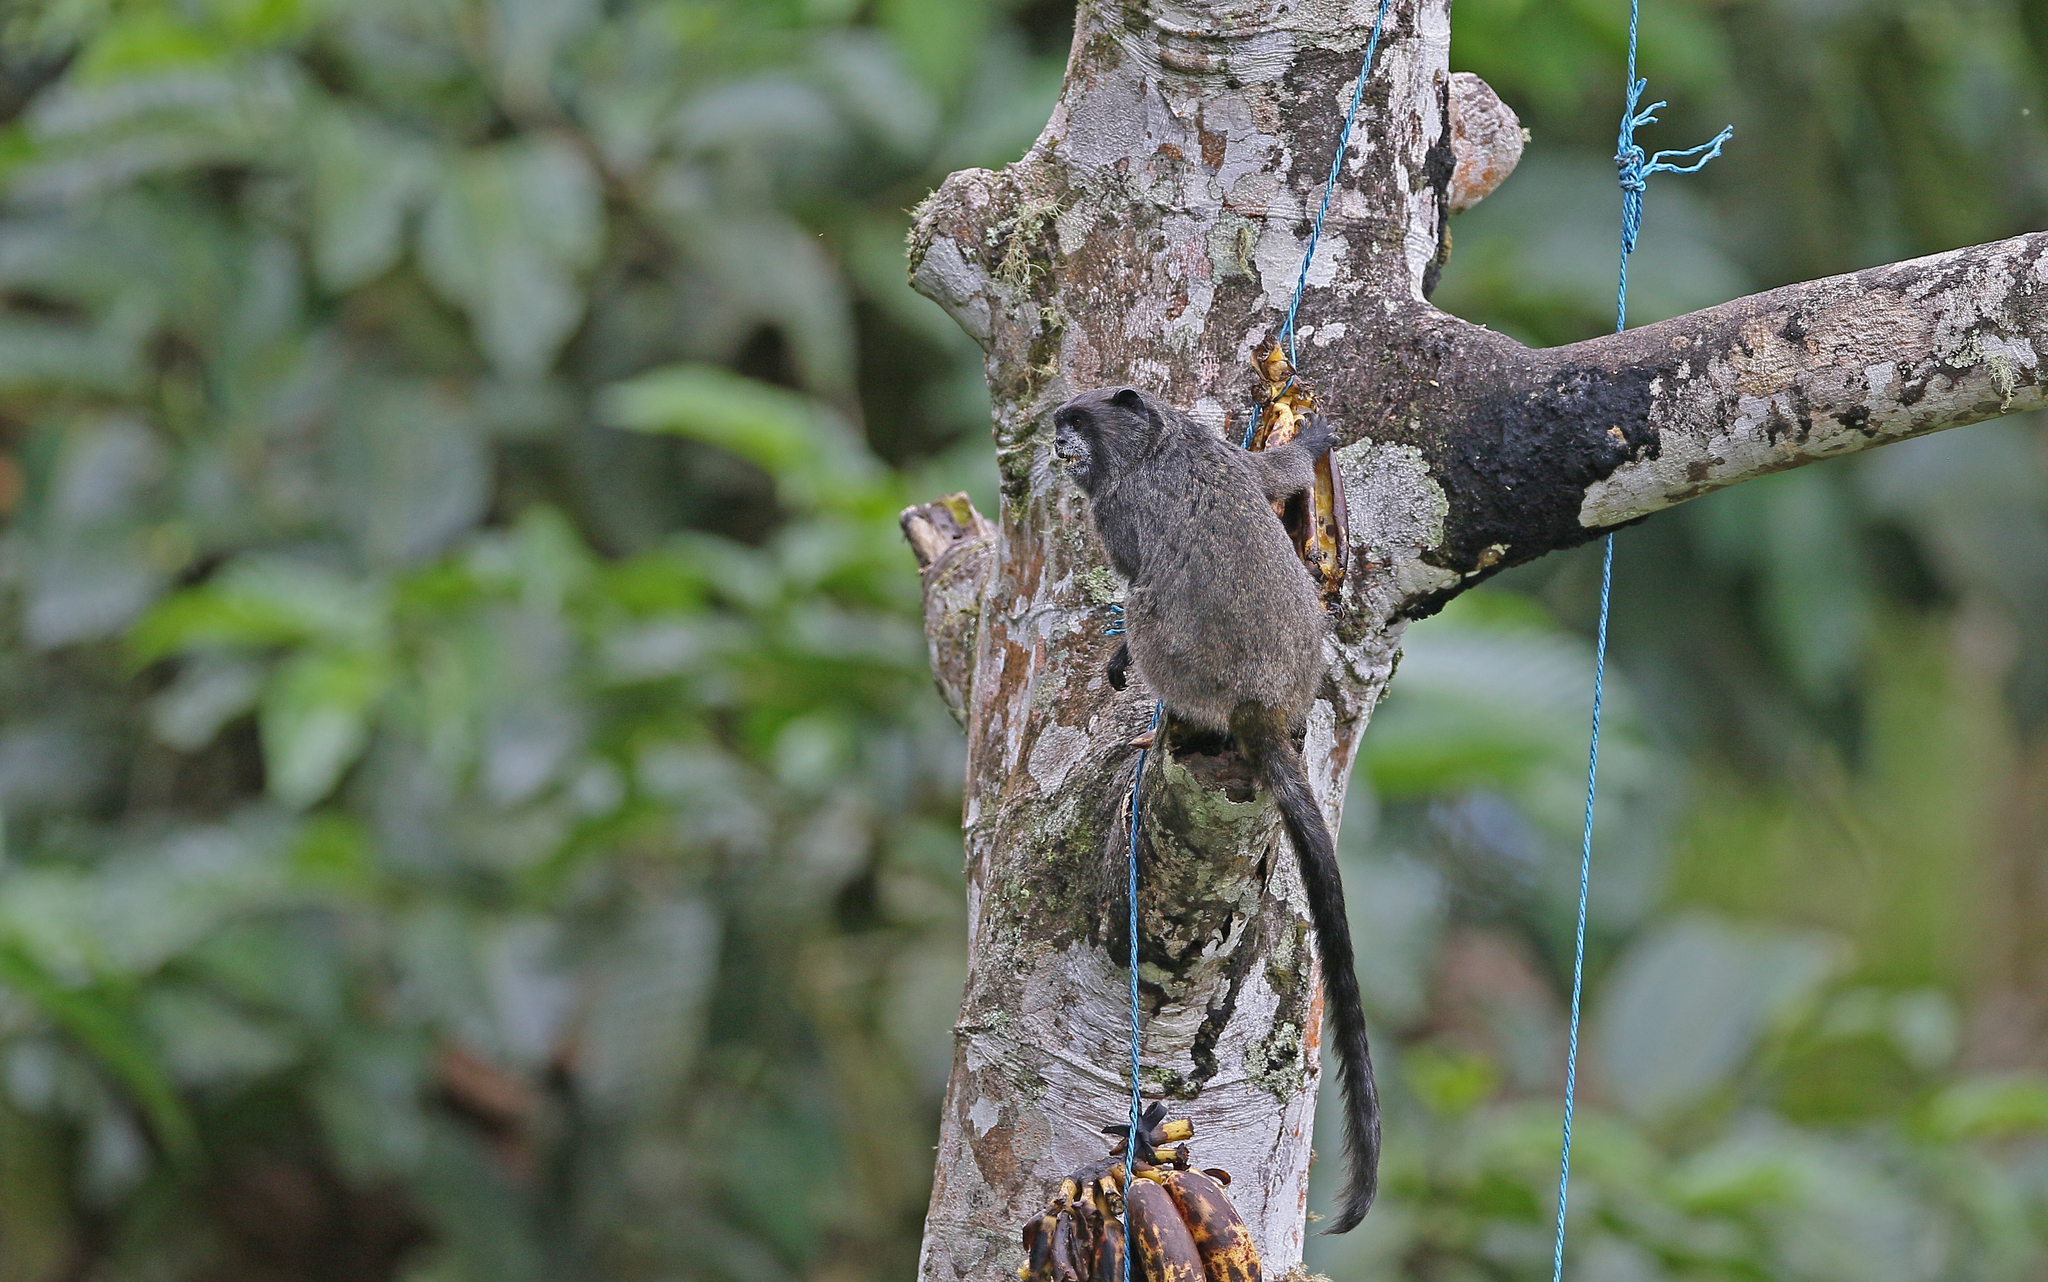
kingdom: Animalia
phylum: Chordata
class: Mammalia
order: Primates
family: Callitrichidae
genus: Leontocebus
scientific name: Leontocebus nigricollis
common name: Black-mantled tamarin
